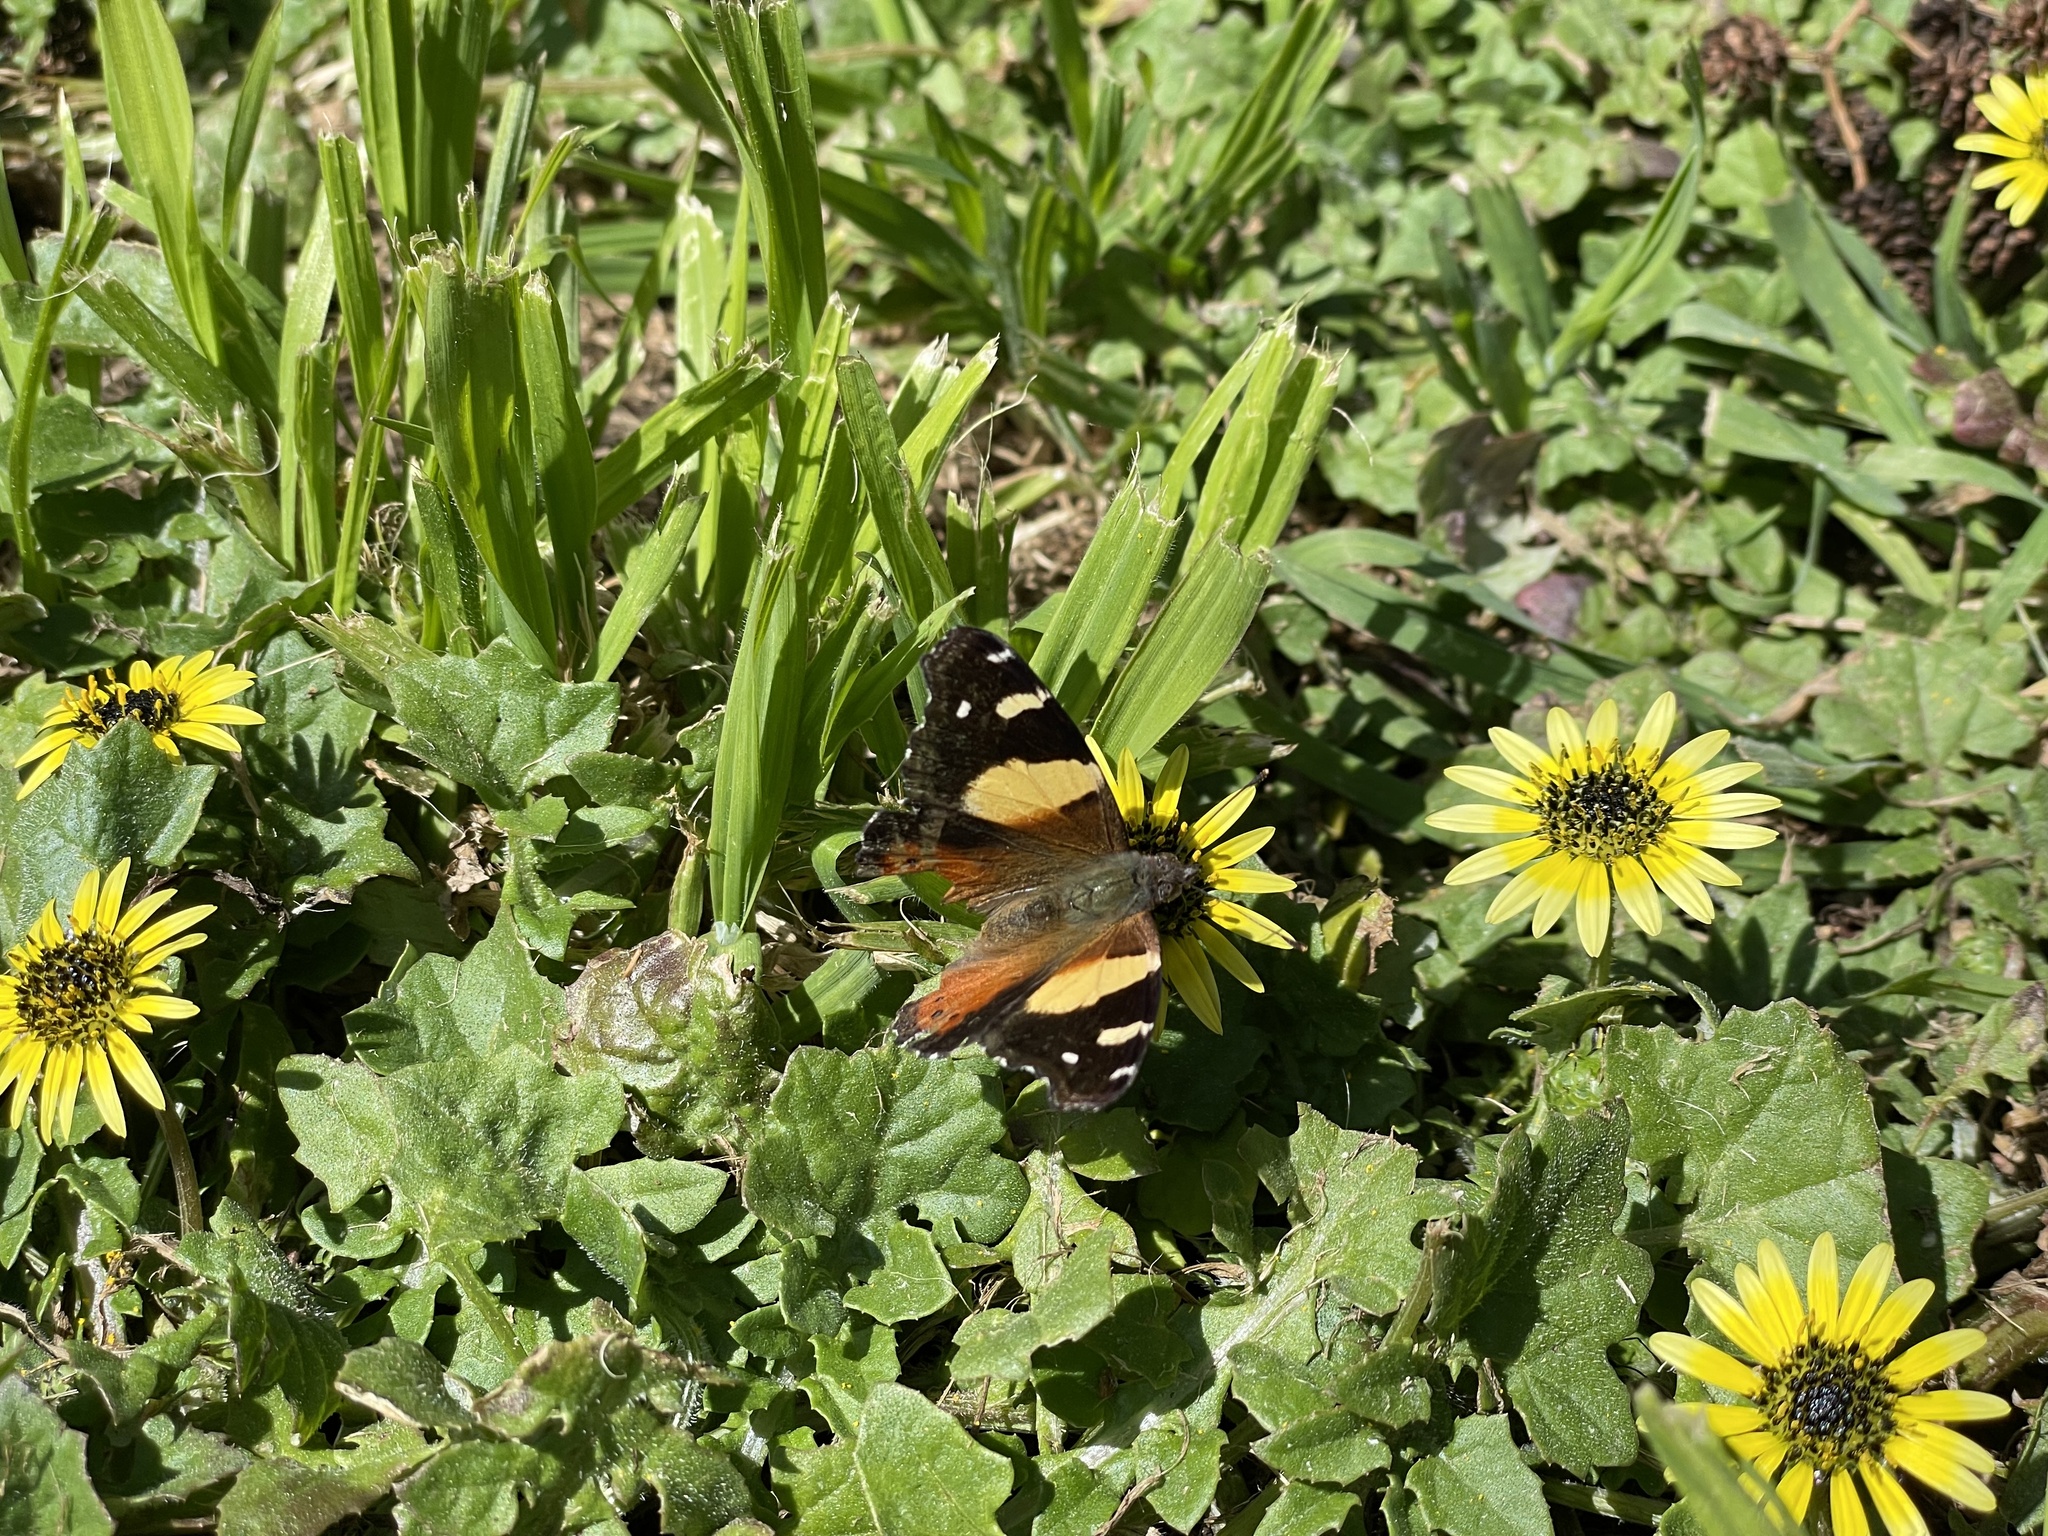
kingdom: Animalia
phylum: Arthropoda
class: Insecta
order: Lepidoptera
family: Nymphalidae
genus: Vanessa
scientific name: Vanessa itea
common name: Yellow admiral
